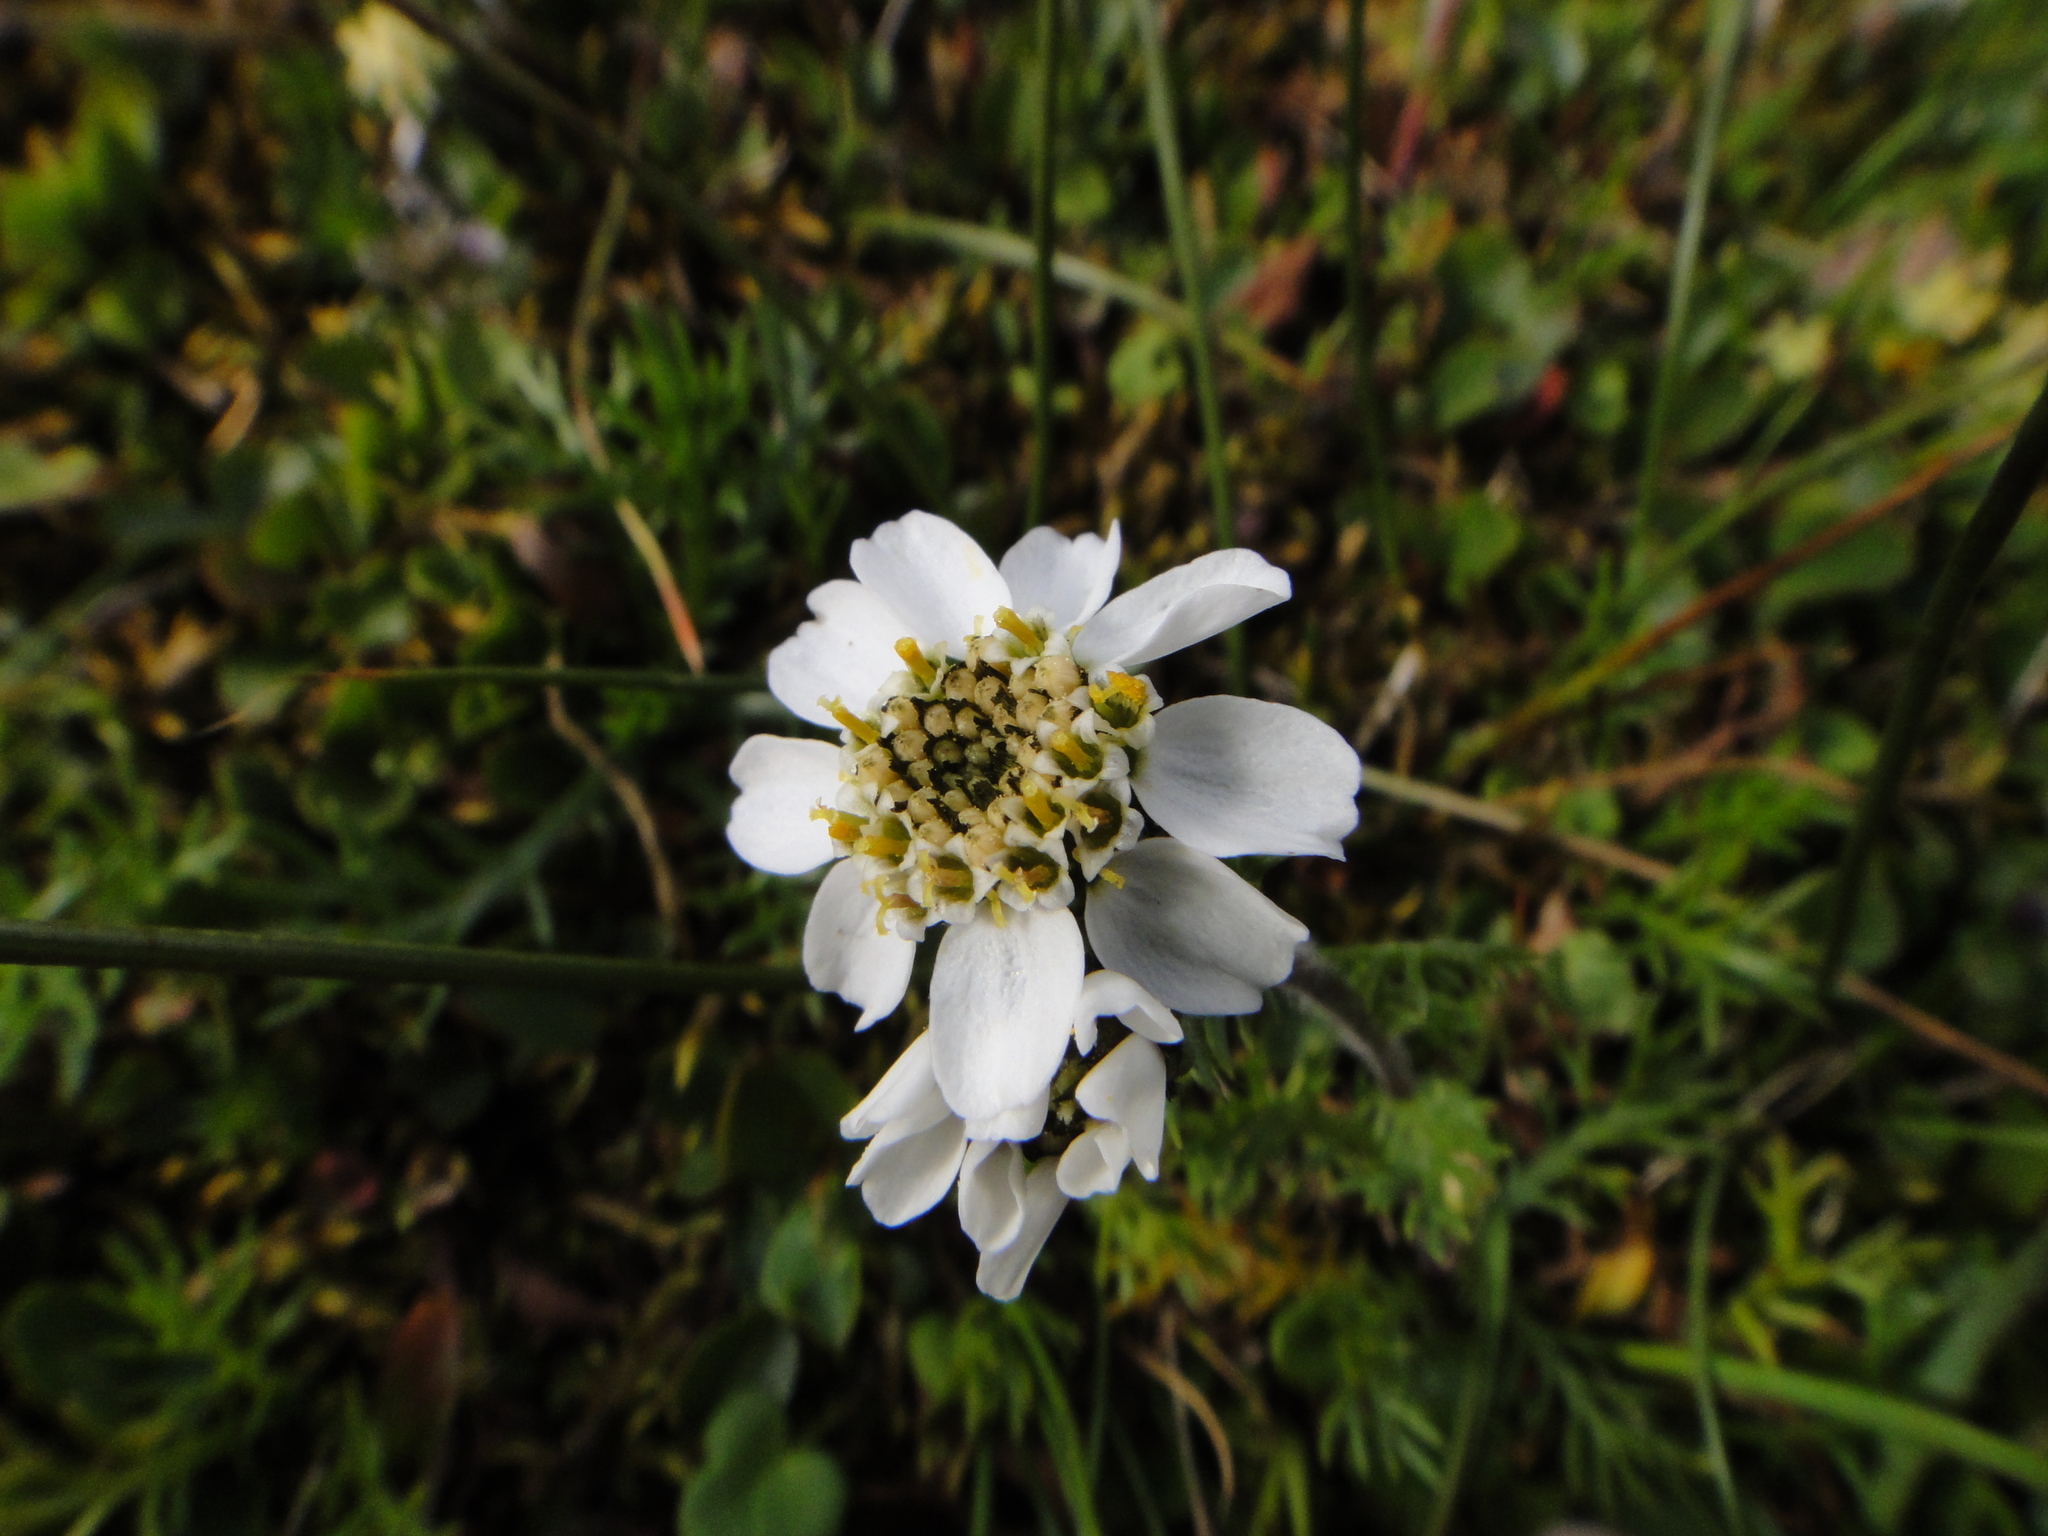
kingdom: Plantae
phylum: Tracheophyta
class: Magnoliopsida
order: Asterales
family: Asteraceae
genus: Achillea
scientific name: Achillea atrata
